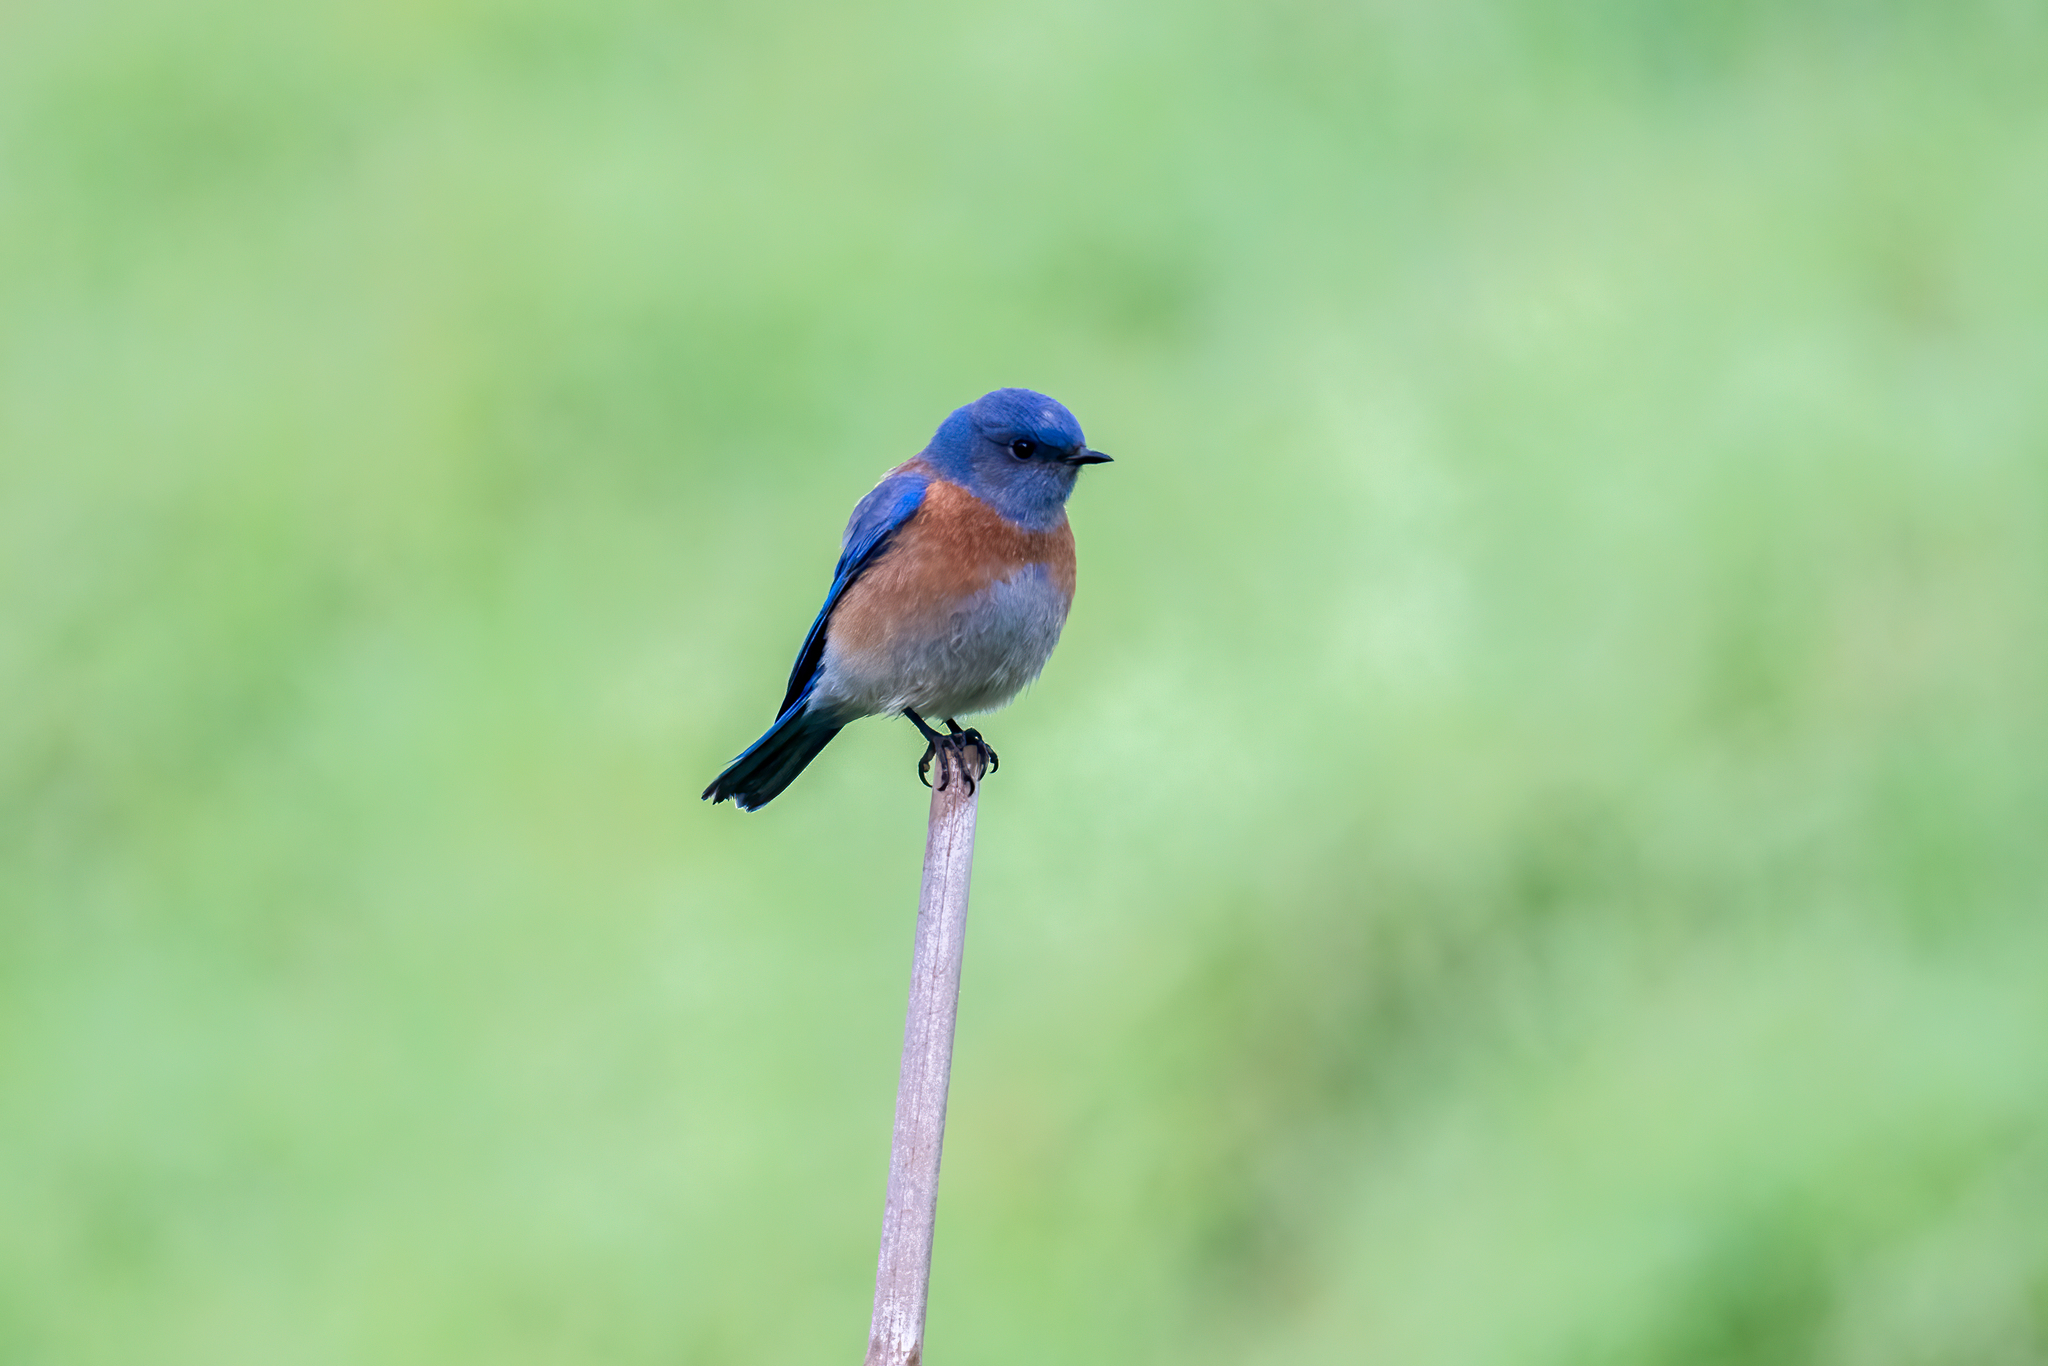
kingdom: Animalia
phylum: Chordata
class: Aves
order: Passeriformes
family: Turdidae
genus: Sialia
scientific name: Sialia mexicana
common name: Western bluebird
